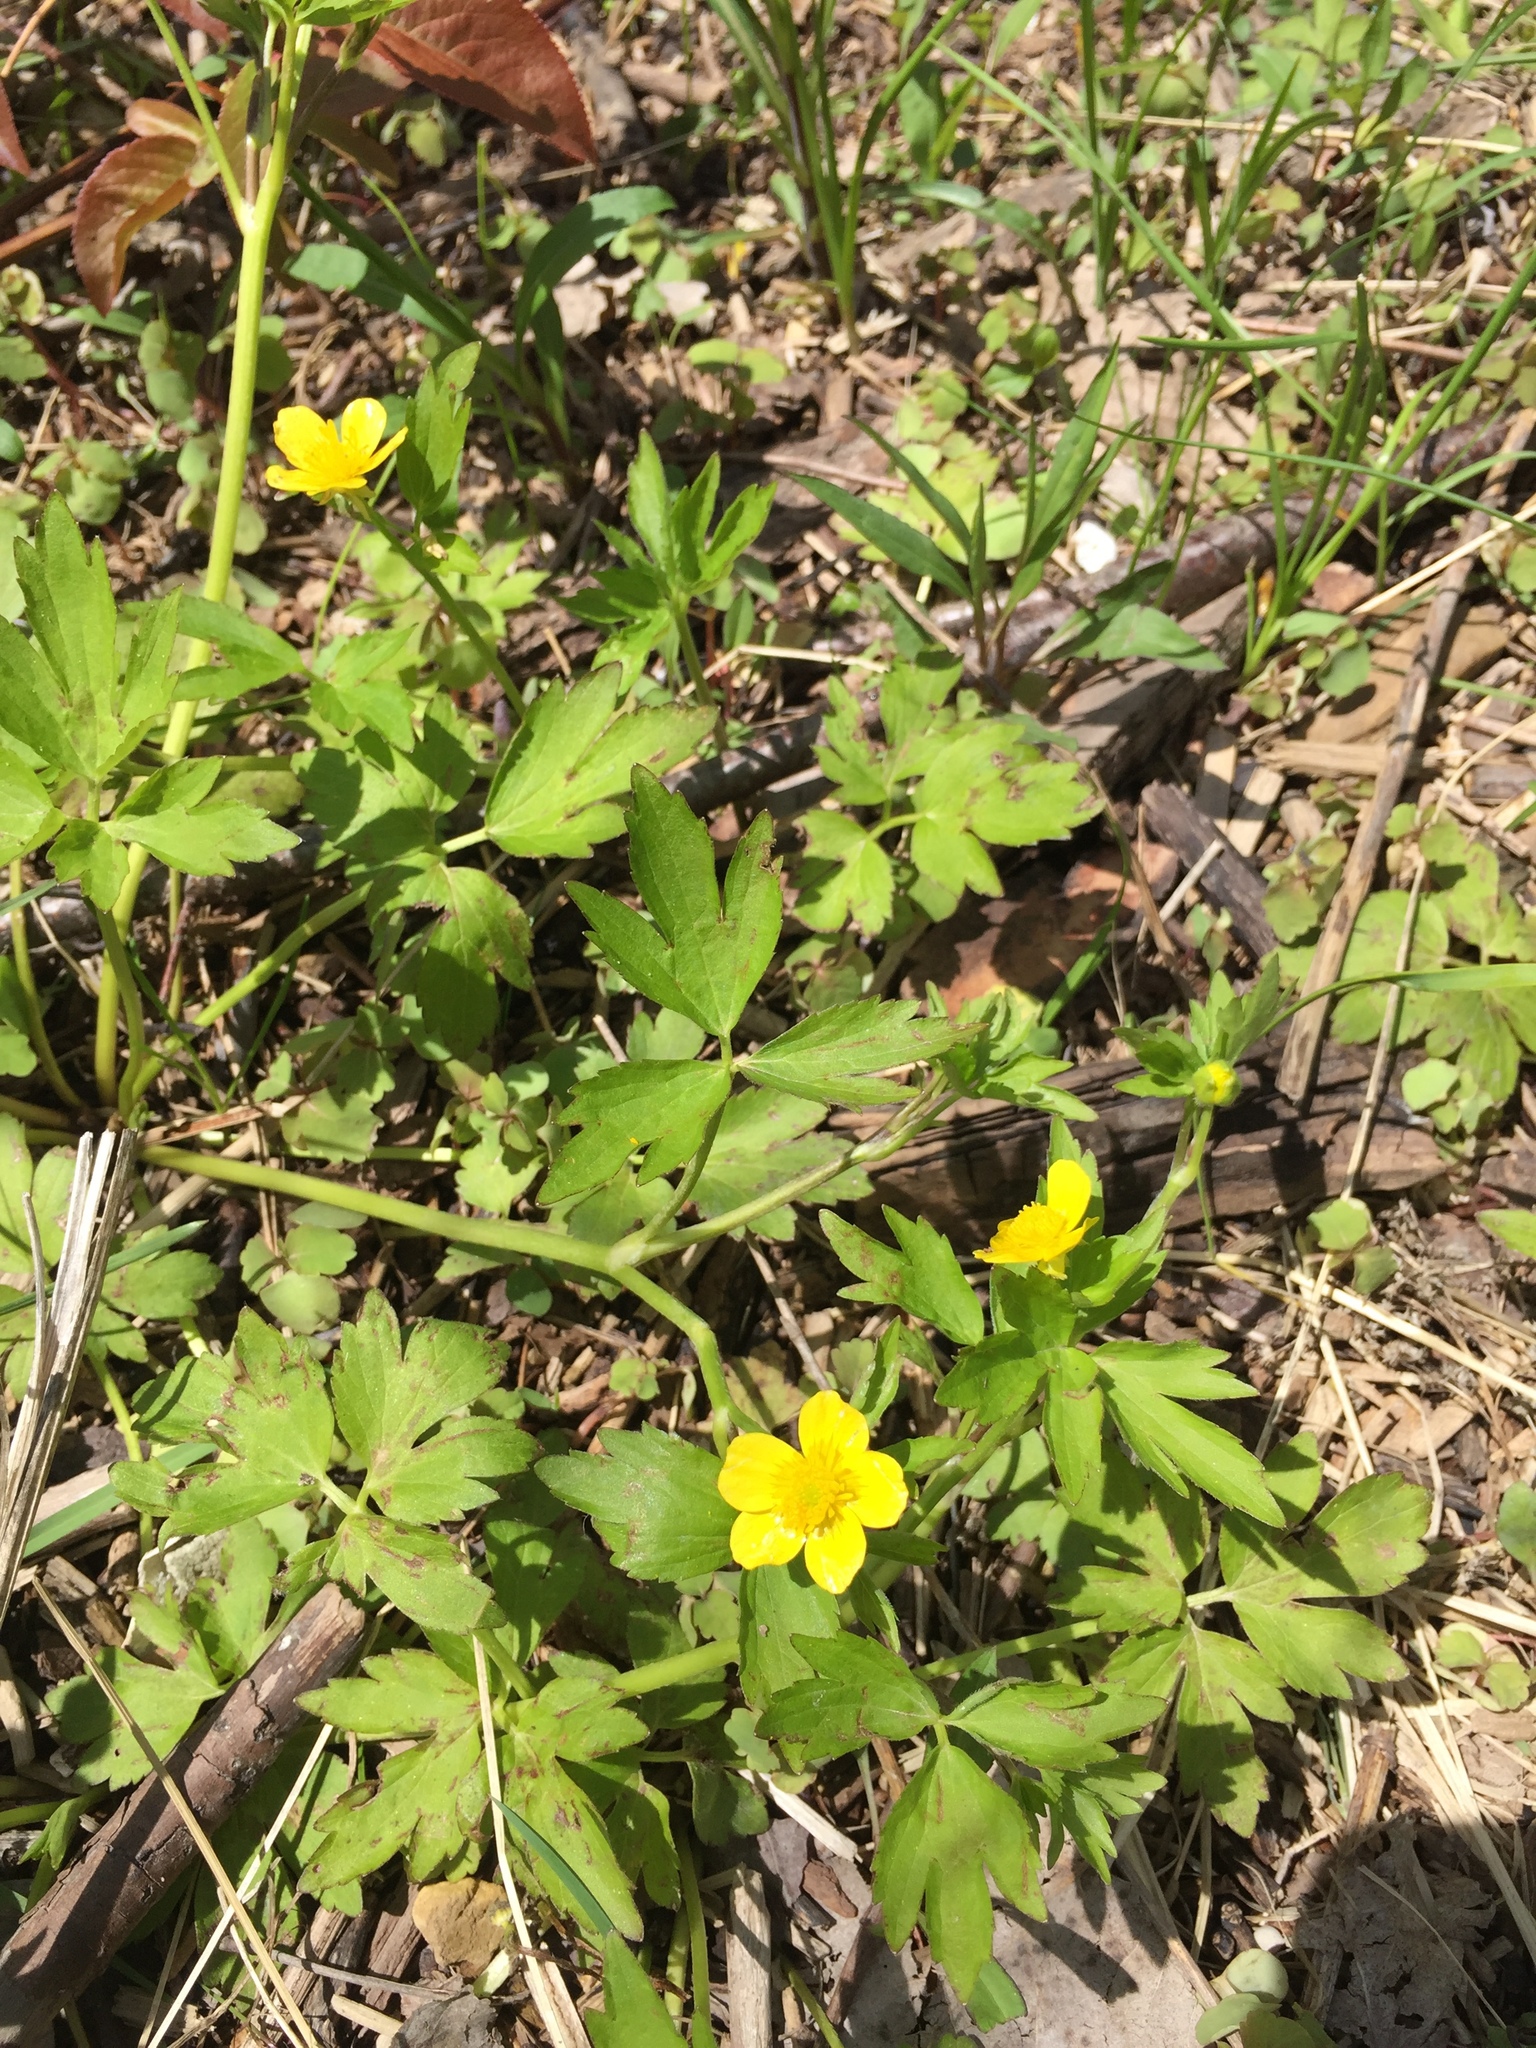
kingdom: Plantae
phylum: Tracheophyta
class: Magnoliopsida
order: Ranunculales
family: Ranunculaceae
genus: Ranunculus
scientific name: Ranunculus hispidus
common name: Bristly buttercup
